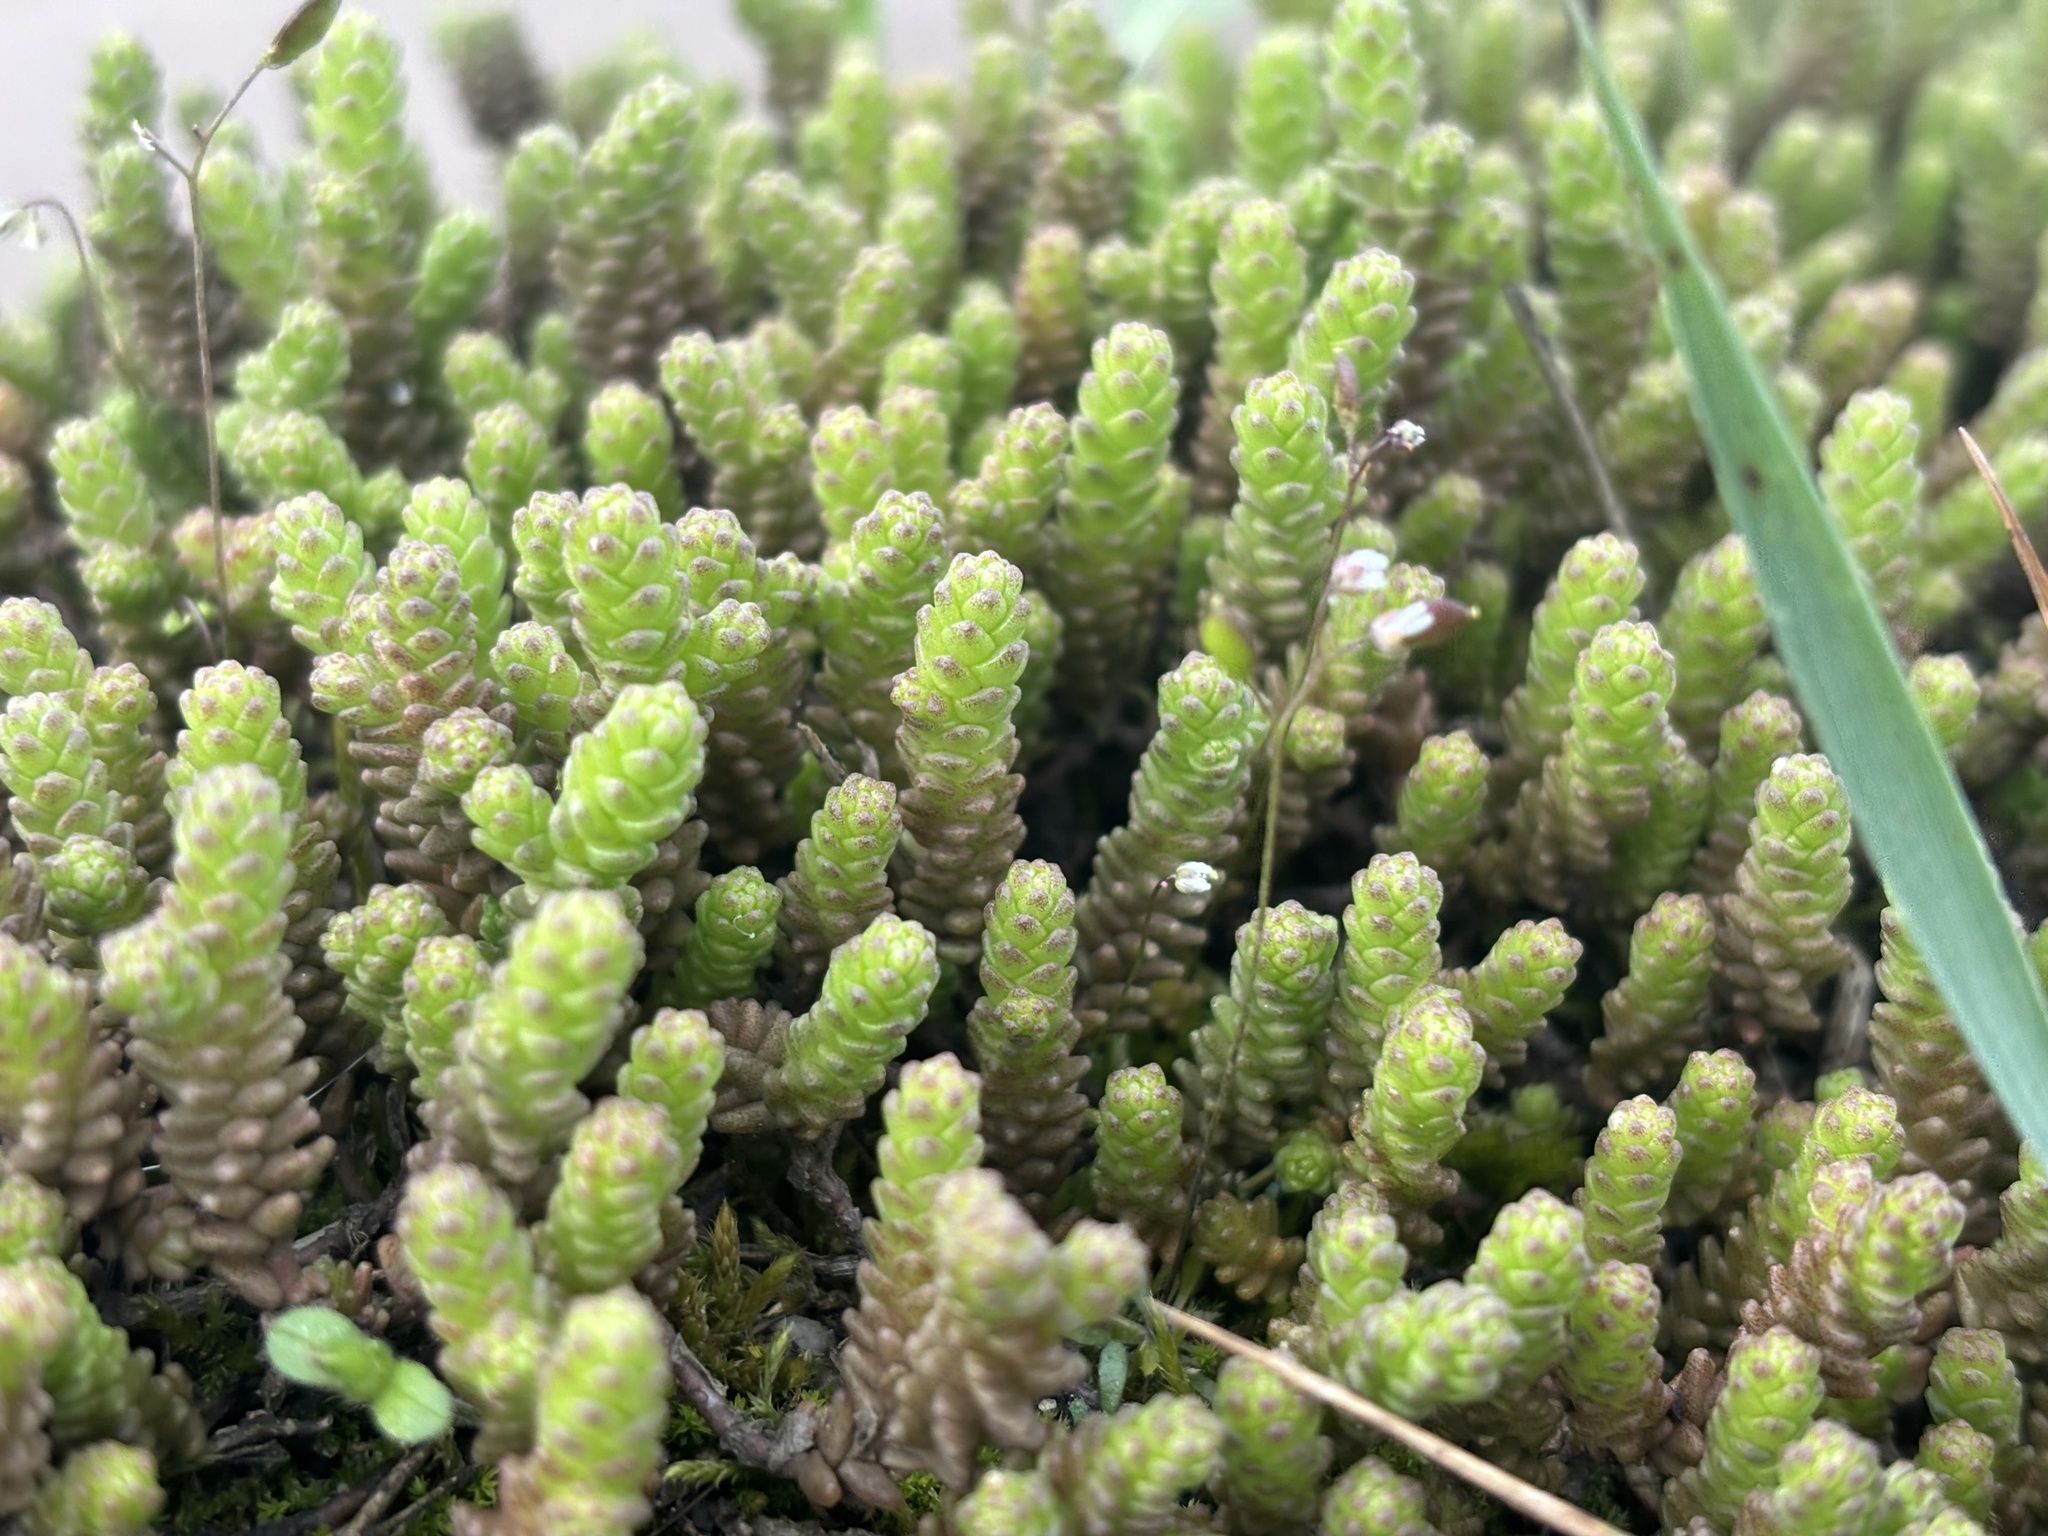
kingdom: Plantae
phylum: Tracheophyta
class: Magnoliopsida
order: Saxifragales
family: Crassulaceae
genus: Sedum
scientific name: Sedum acre
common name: Biting stonecrop
